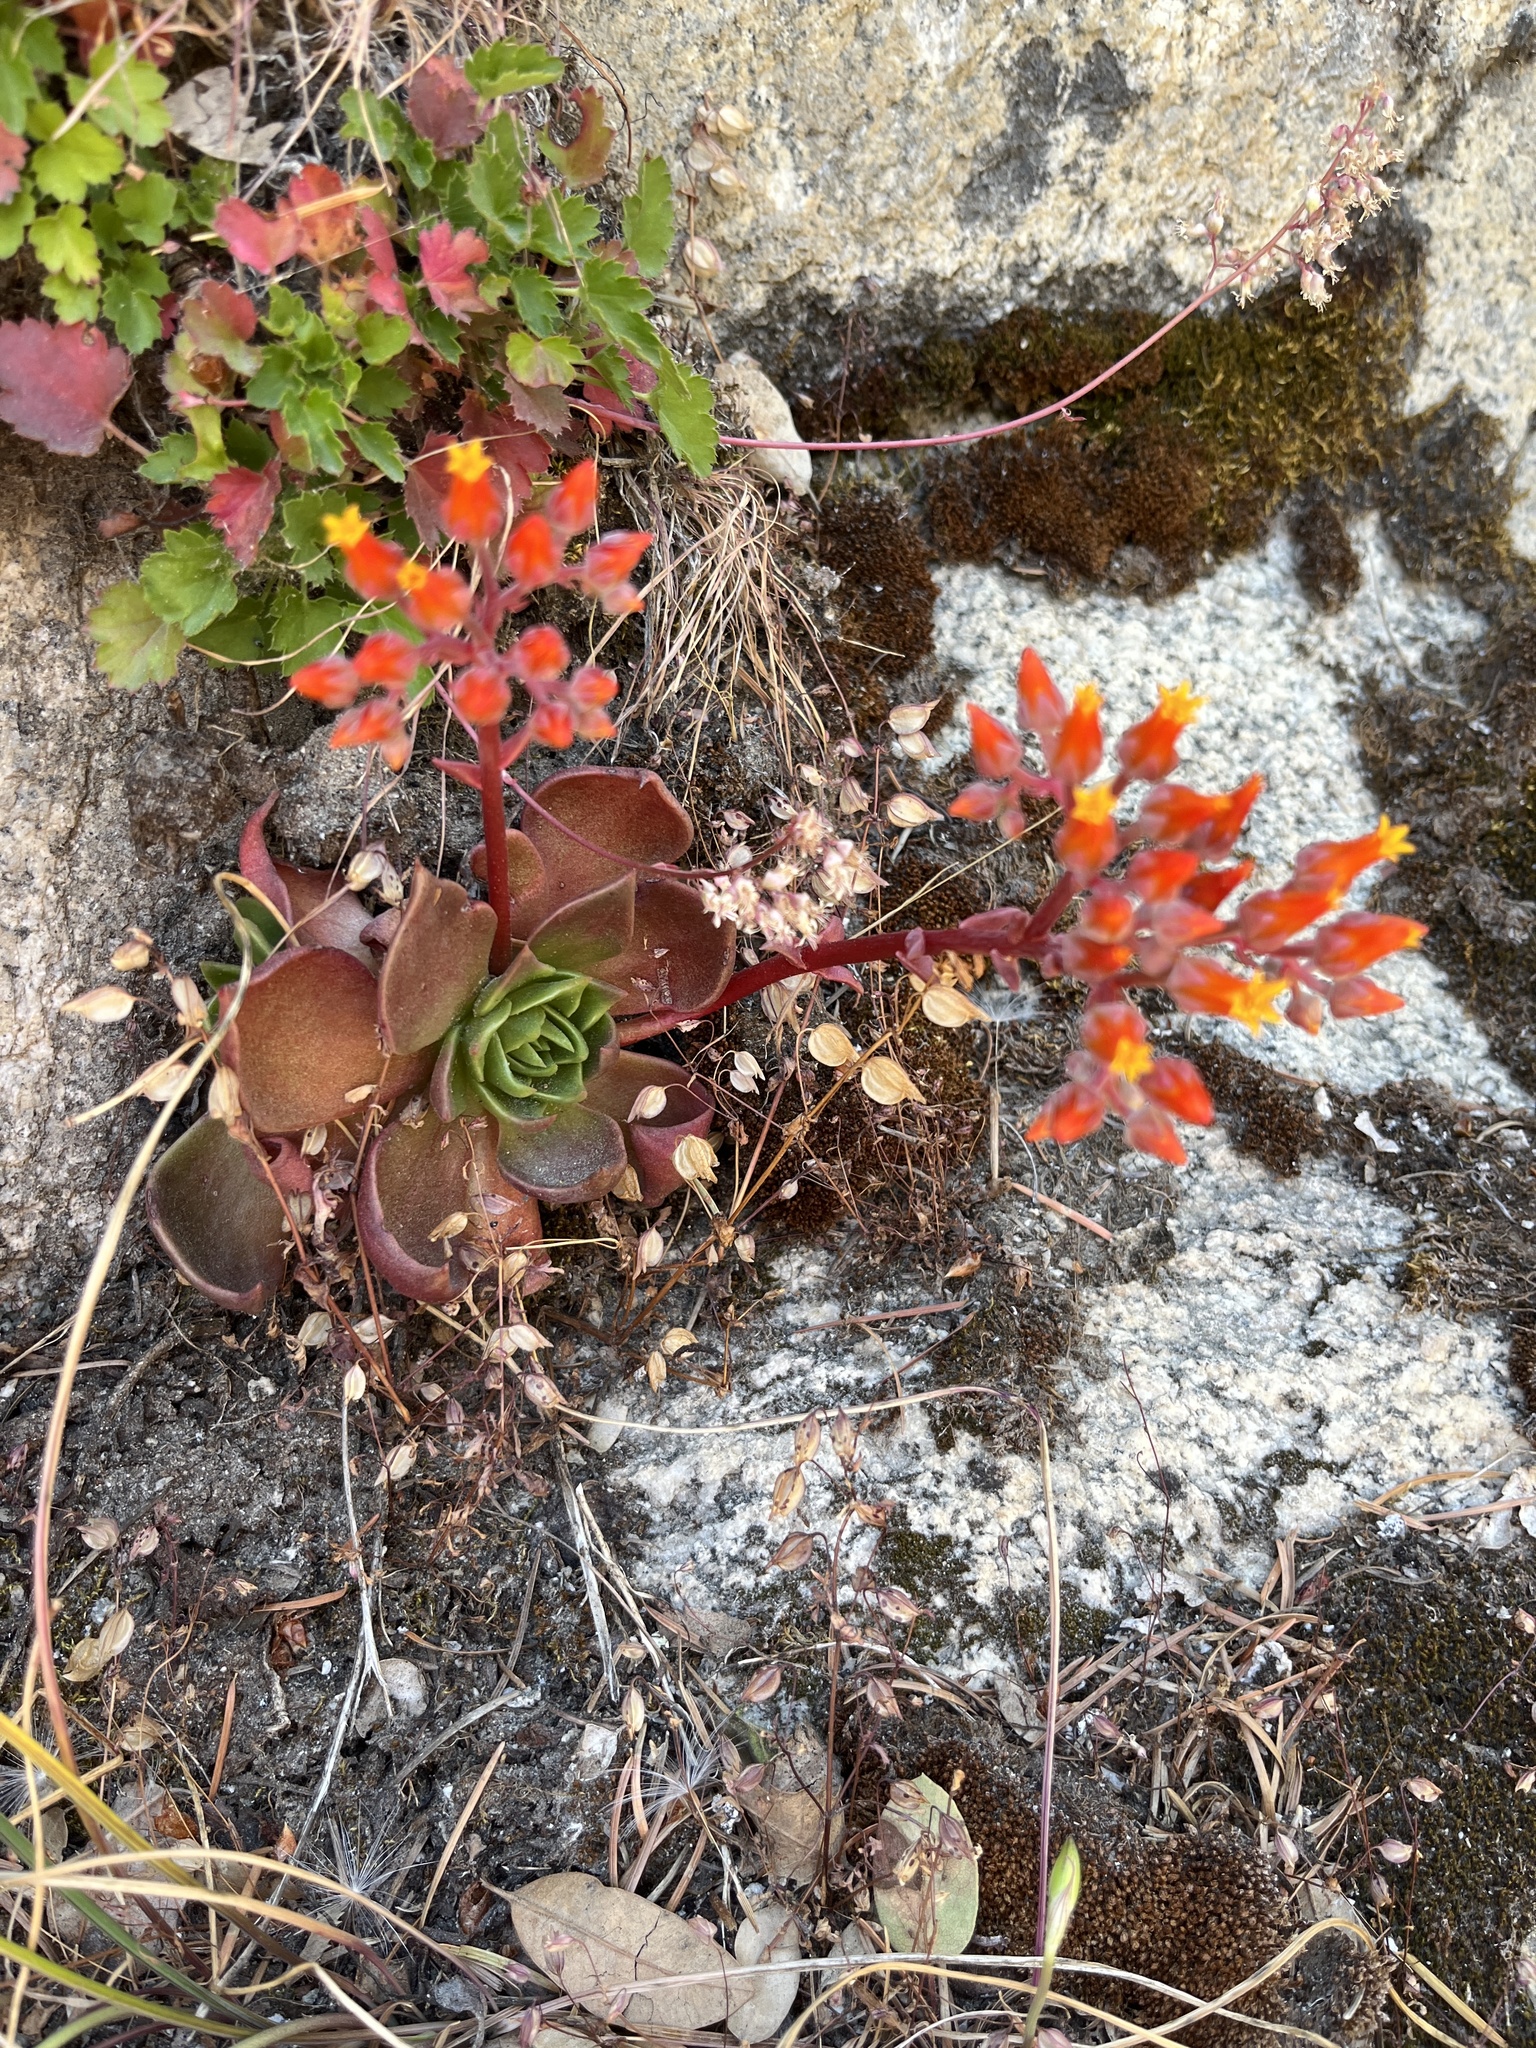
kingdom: Plantae
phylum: Tracheophyta
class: Magnoliopsida
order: Saxifragales
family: Crassulaceae
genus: Dudleya
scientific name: Dudleya cymosa
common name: Canyon dudleya
